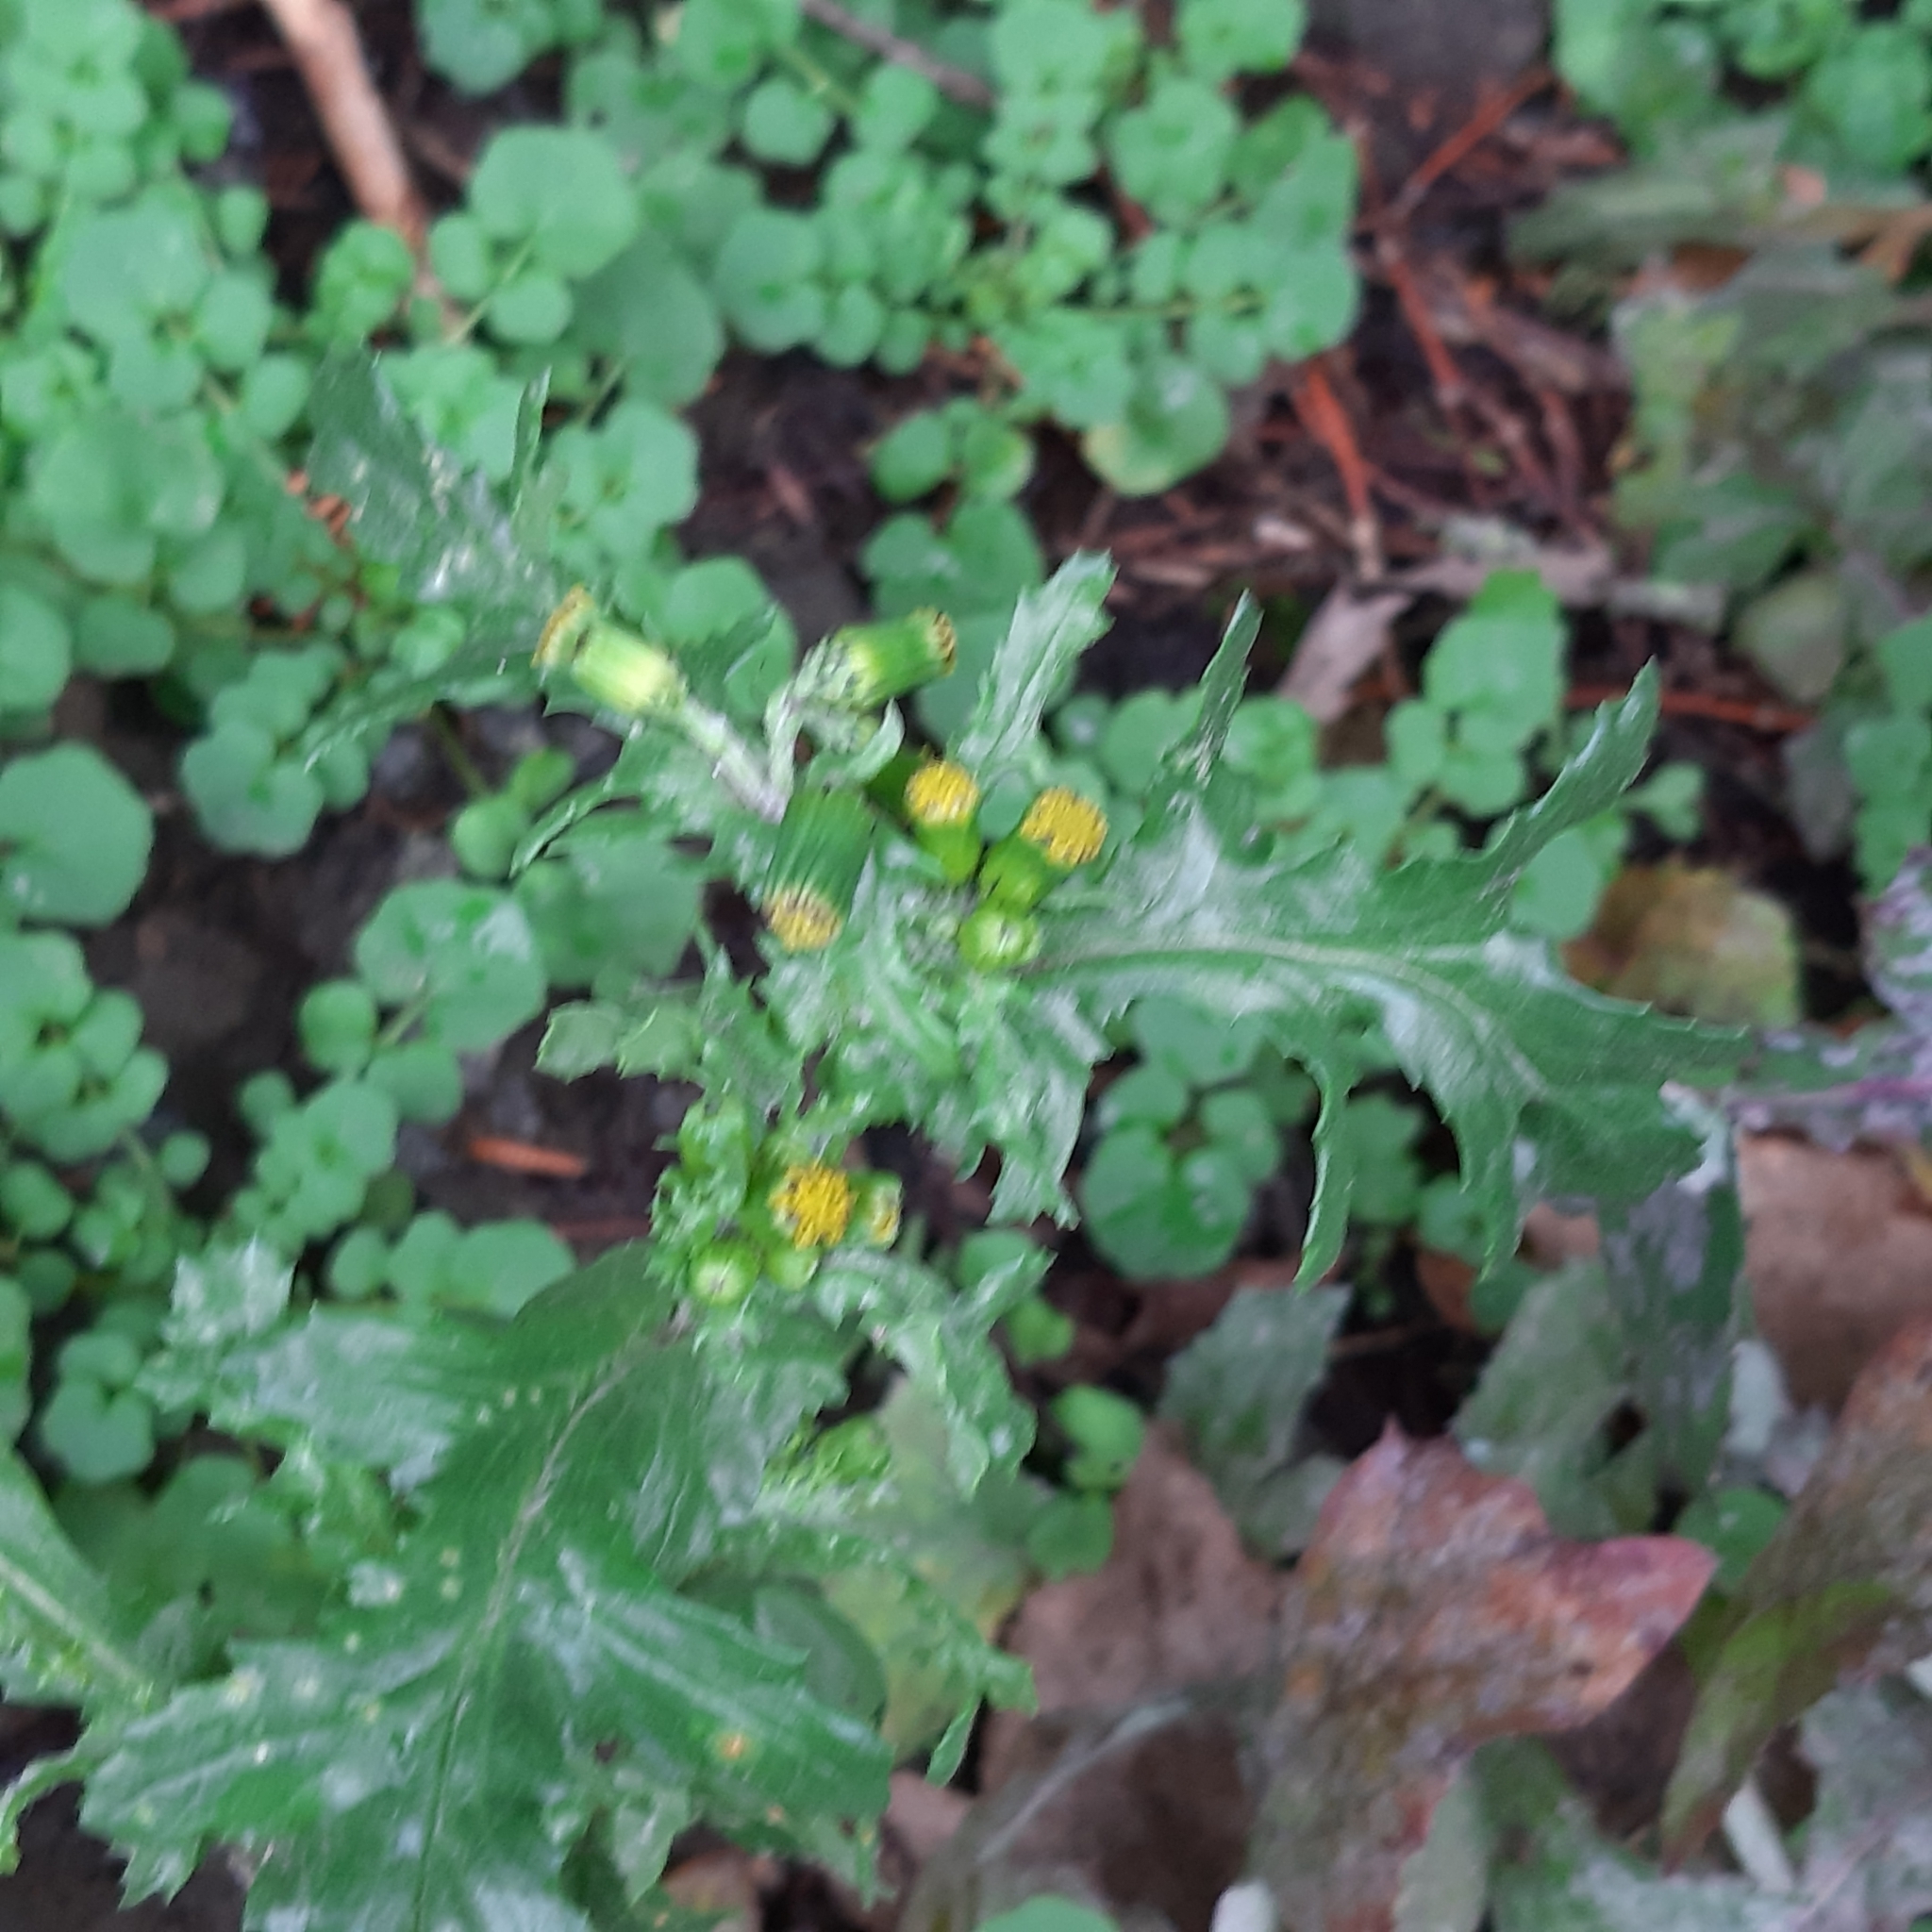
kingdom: Plantae
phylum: Tracheophyta
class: Magnoliopsida
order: Asterales
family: Asteraceae
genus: Senecio
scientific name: Senecio vulgaris
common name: Old-man-in-the-spring
